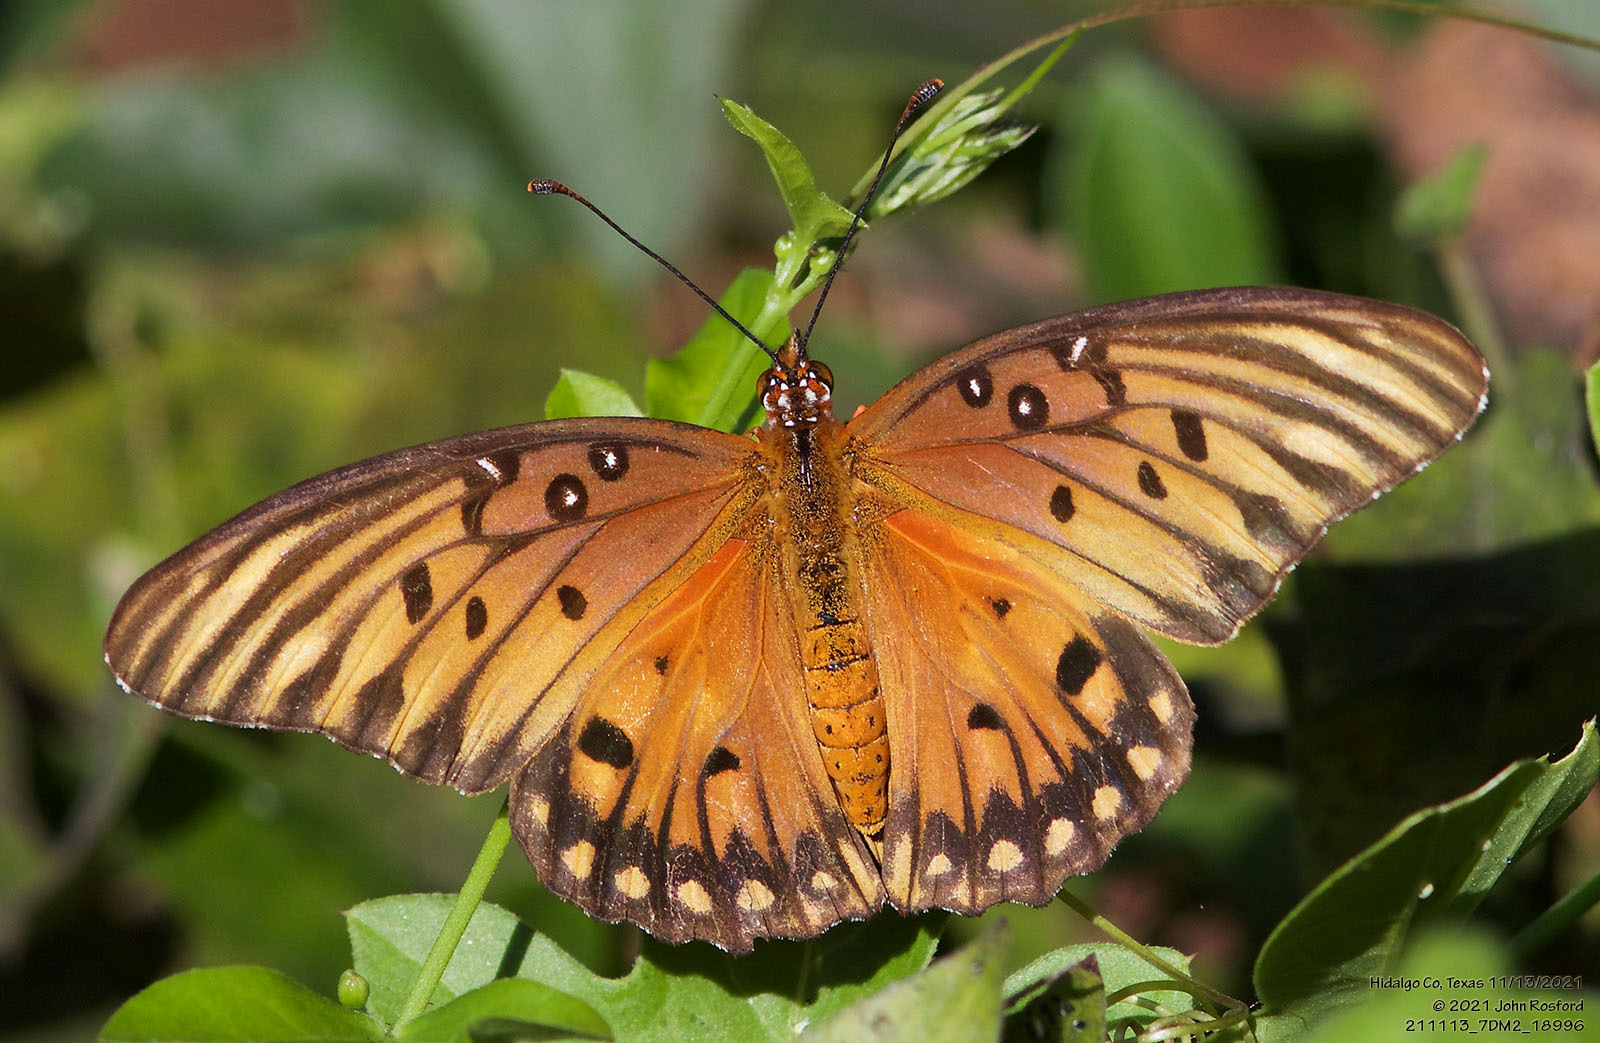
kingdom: Animalia
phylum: Arthropoda
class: Insecta
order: Lepidoptera
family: Nymphalidae
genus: Dione
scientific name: Dione vanillae
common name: Gulf fritillary
